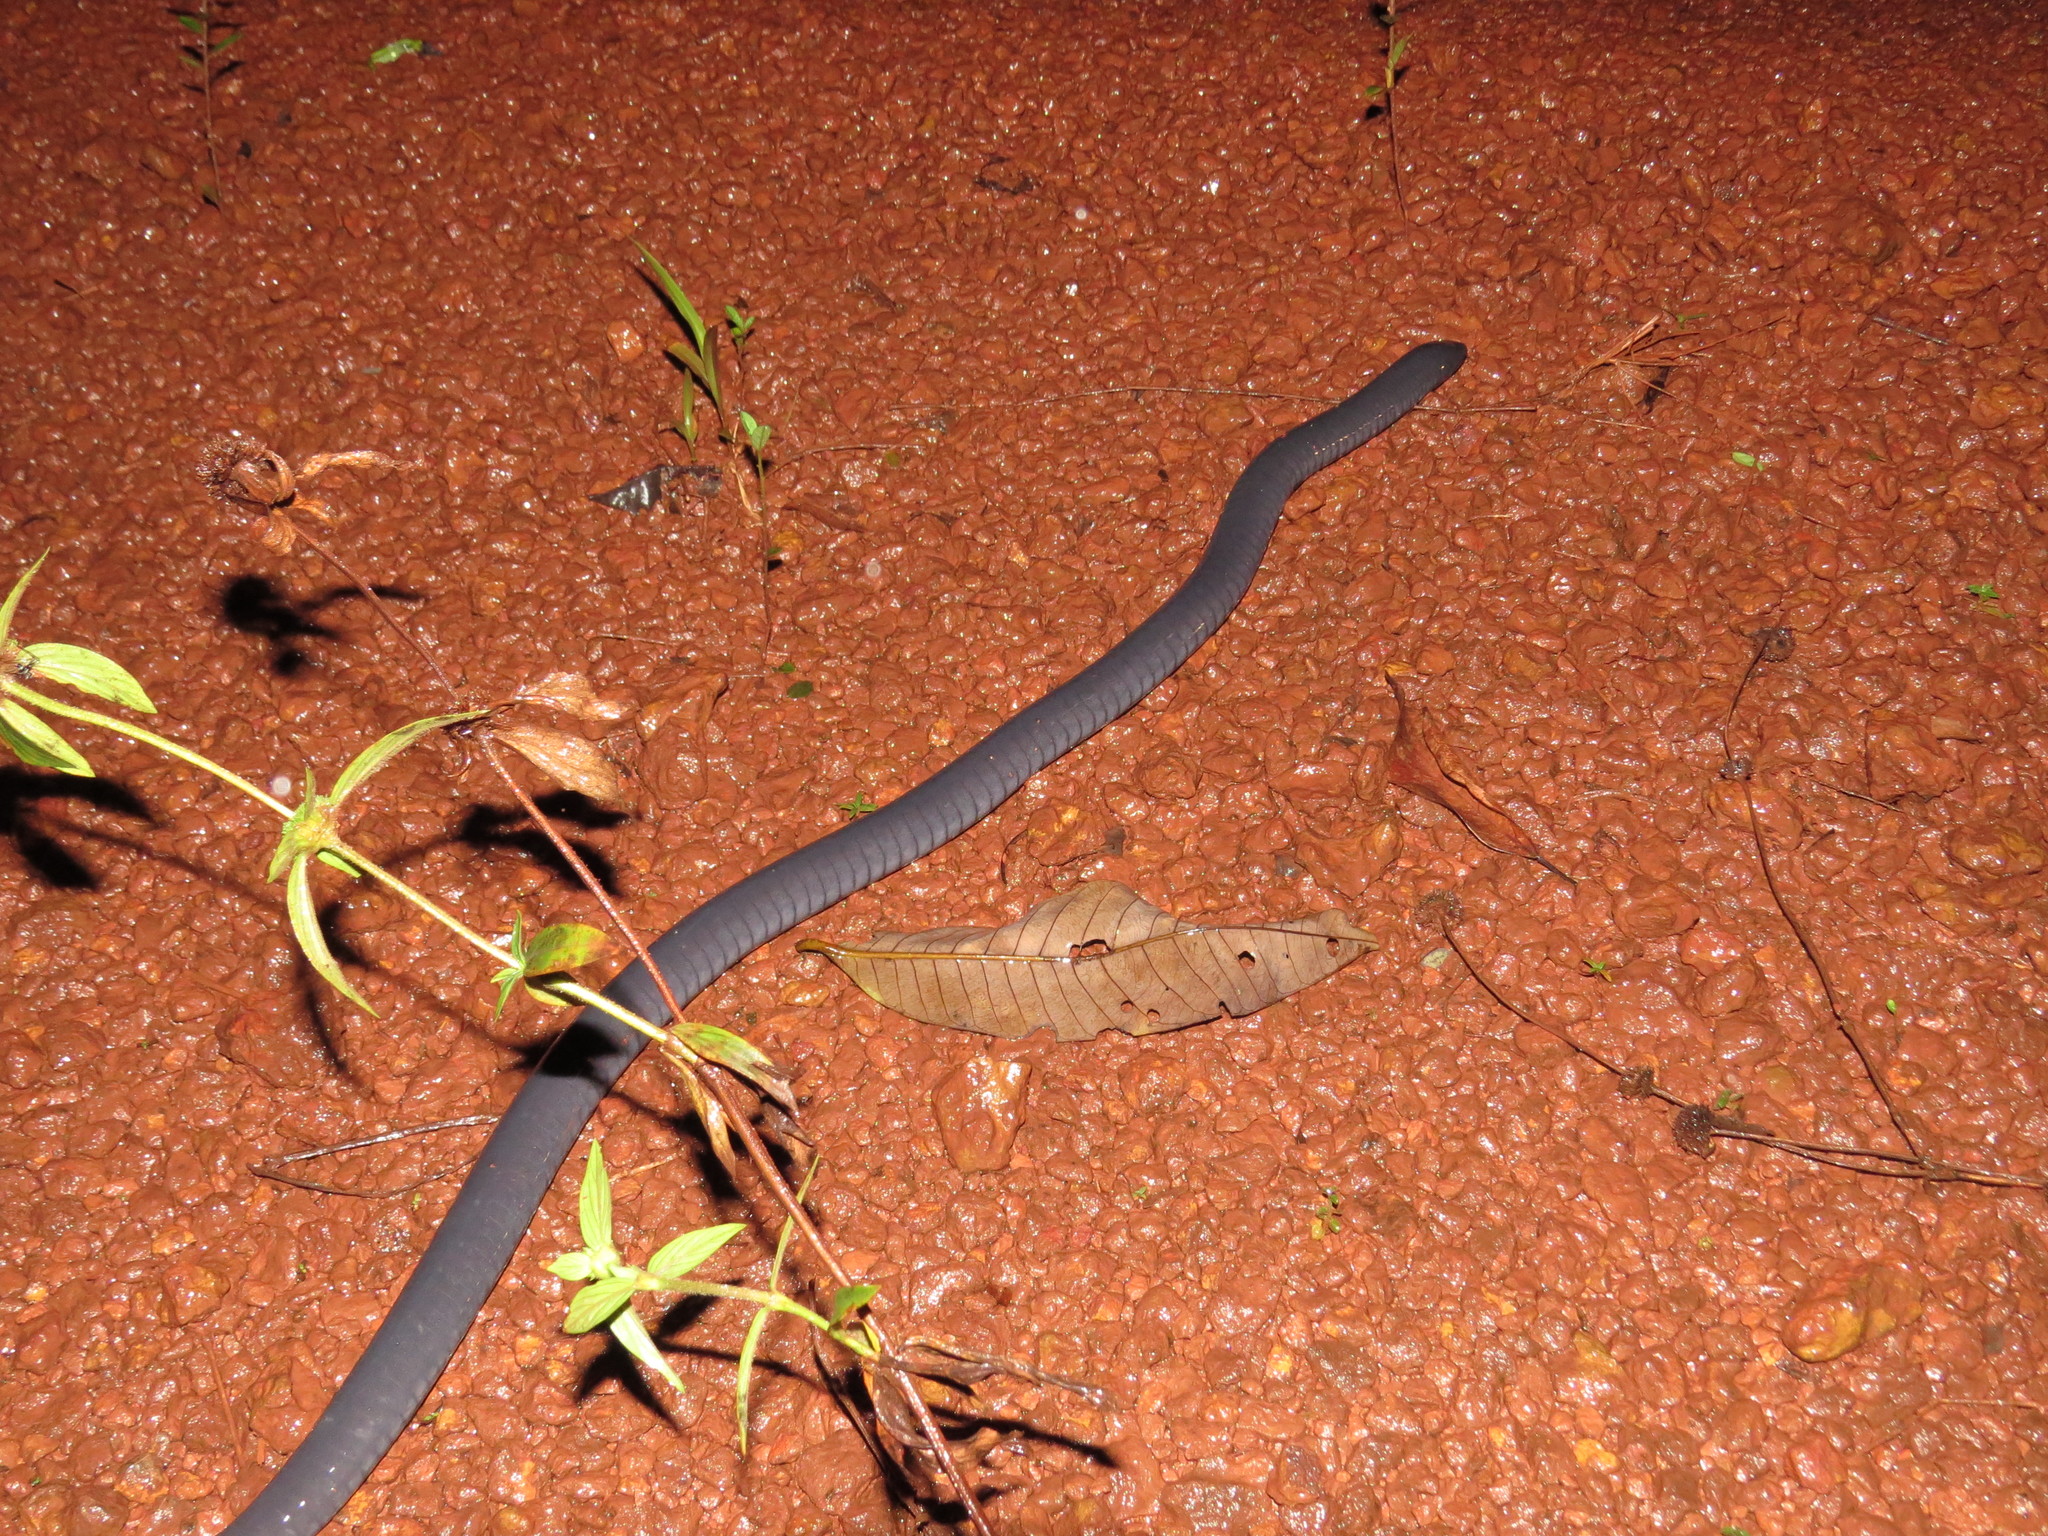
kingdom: Animalia
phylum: Chordata
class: Amphibia
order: Gymnophiona
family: Caeciliidae
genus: Caecilia
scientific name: Caecilia tentaculata
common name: Bearded caecilia
